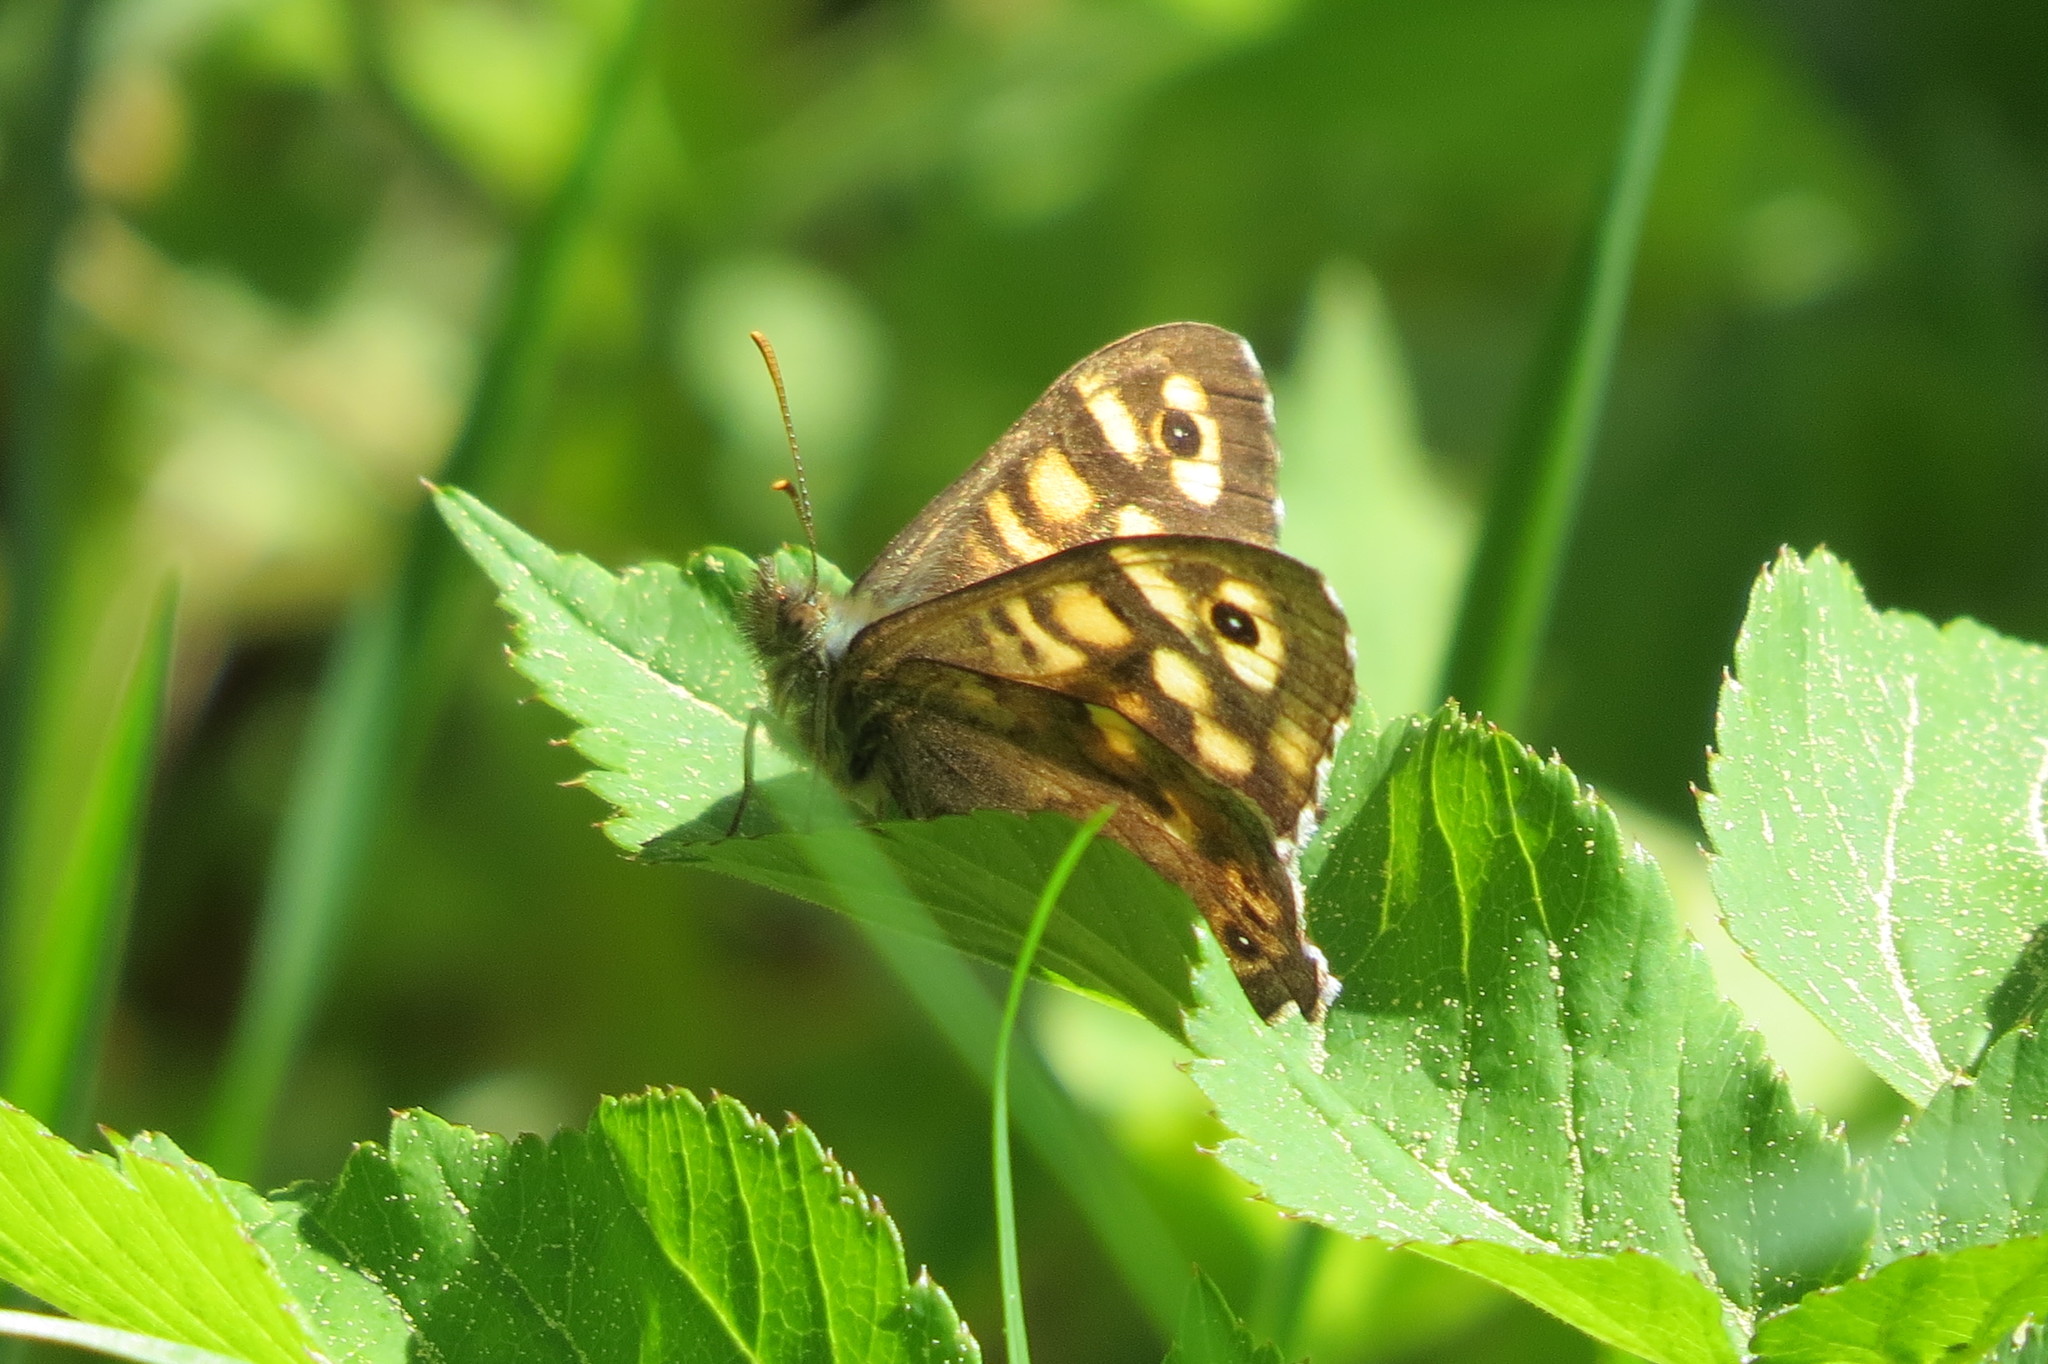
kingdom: Animalia
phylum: Arthropoda
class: Insecta
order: Lepidoptera
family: Nymphalidae
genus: Pararge
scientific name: Pararge aegeria
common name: Speckled wood
